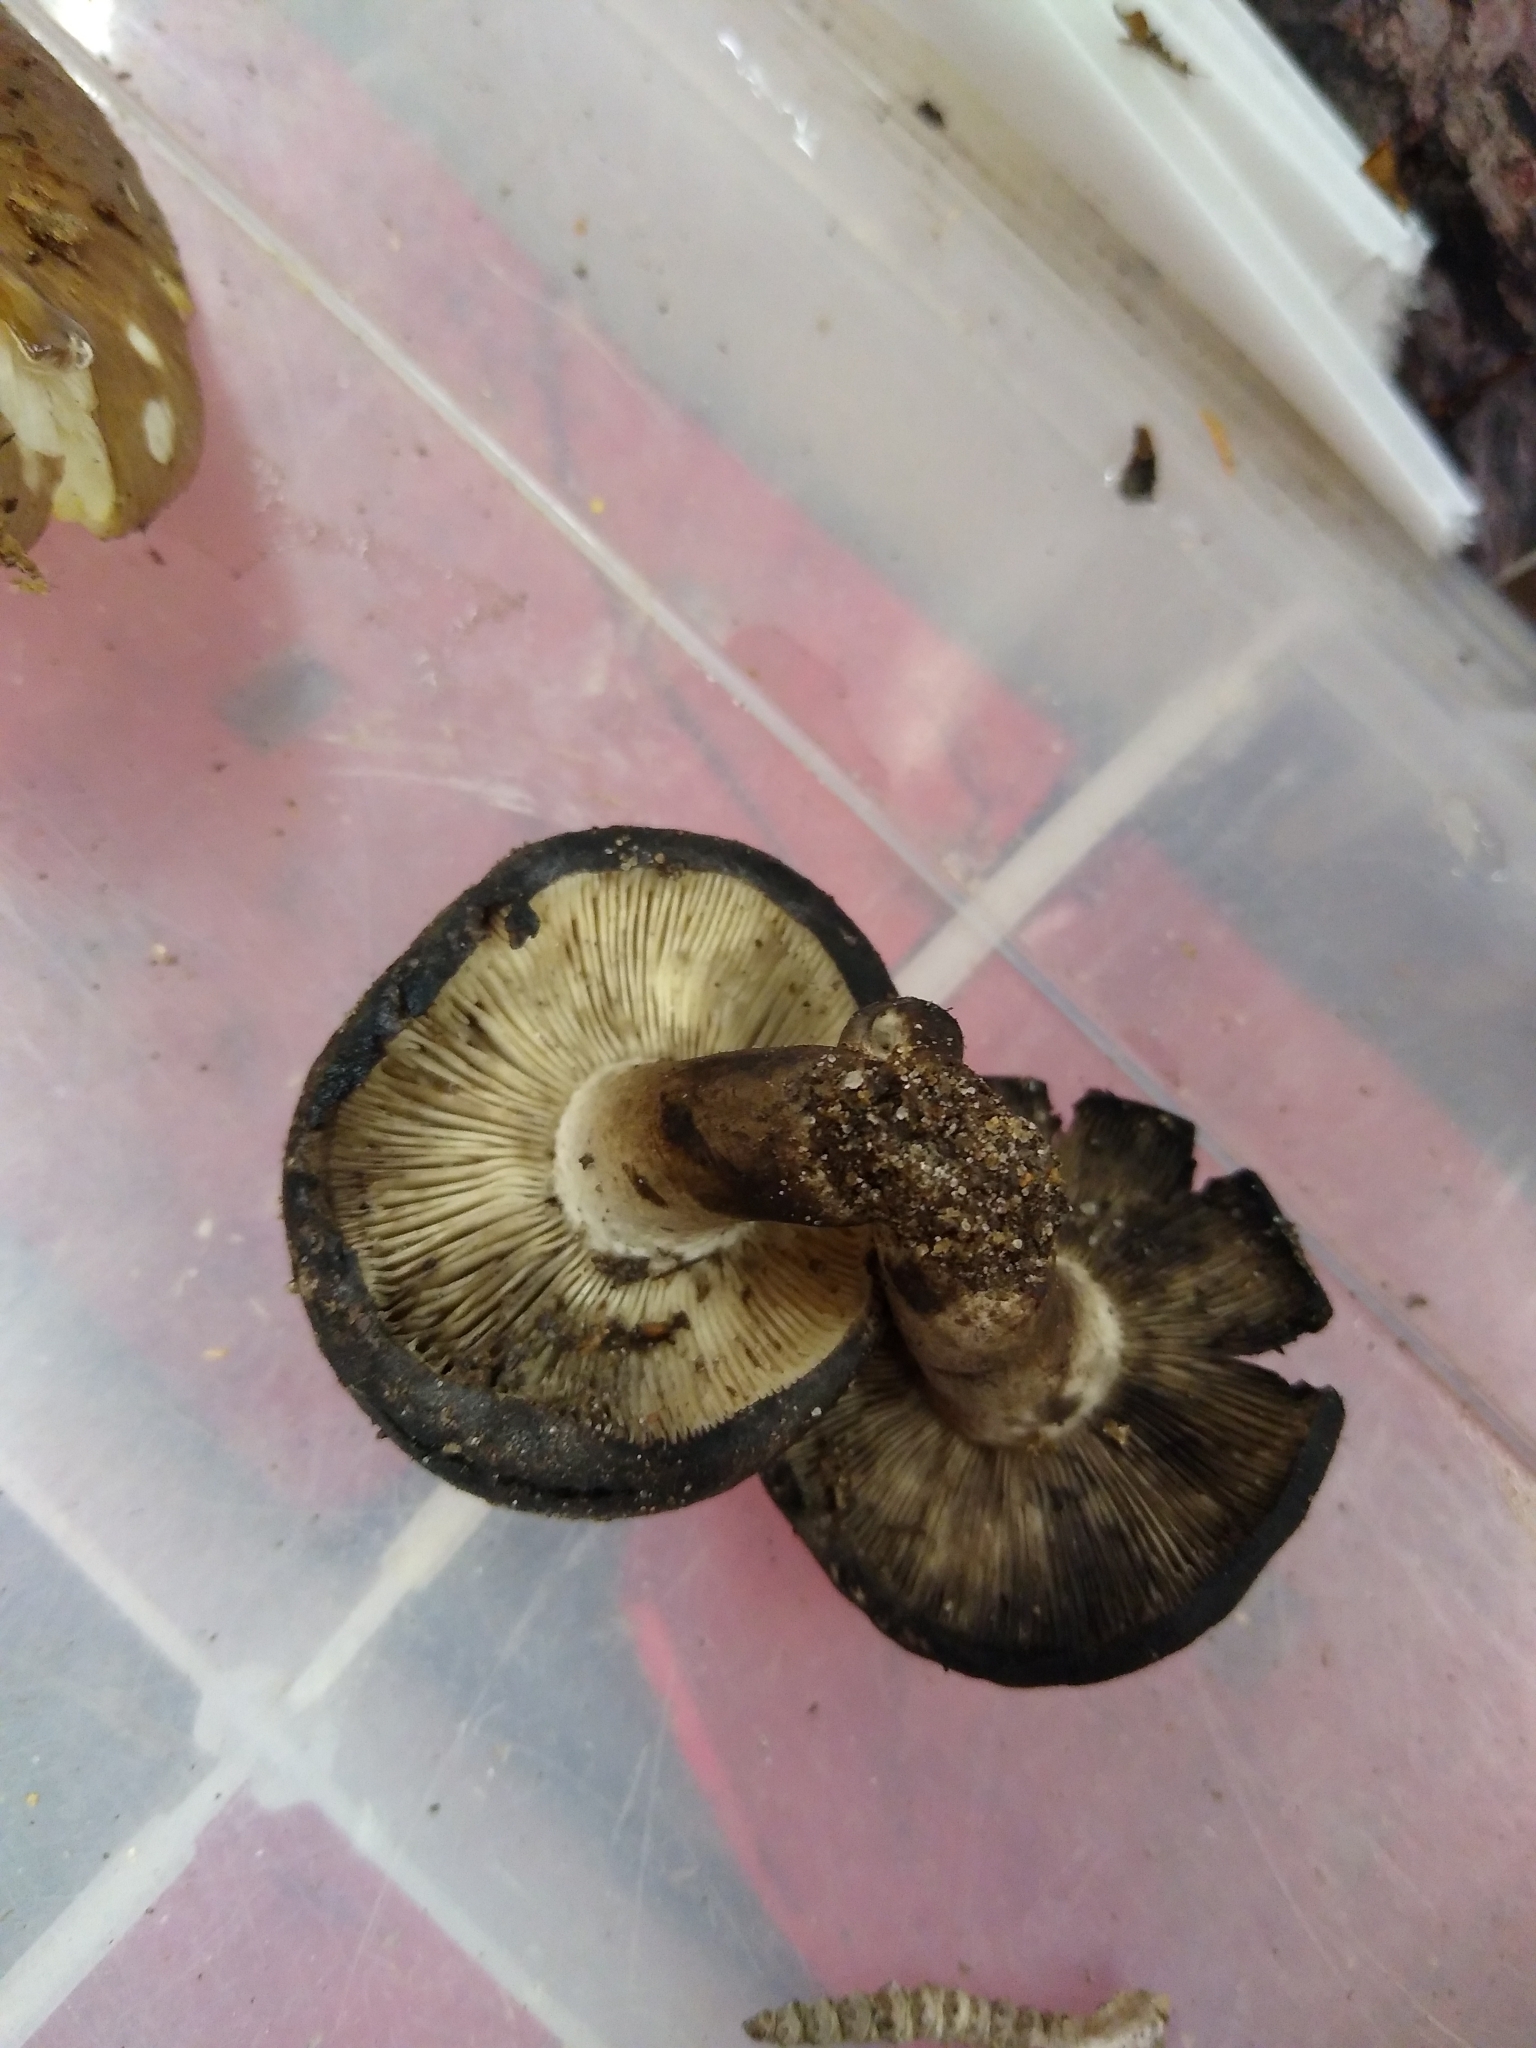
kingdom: Fungi
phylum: Basidiomycota
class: Agaricomycetes
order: Russulales
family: Russulaceae
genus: Russula
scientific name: Russula albonigra
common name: Menthol brittlegill
